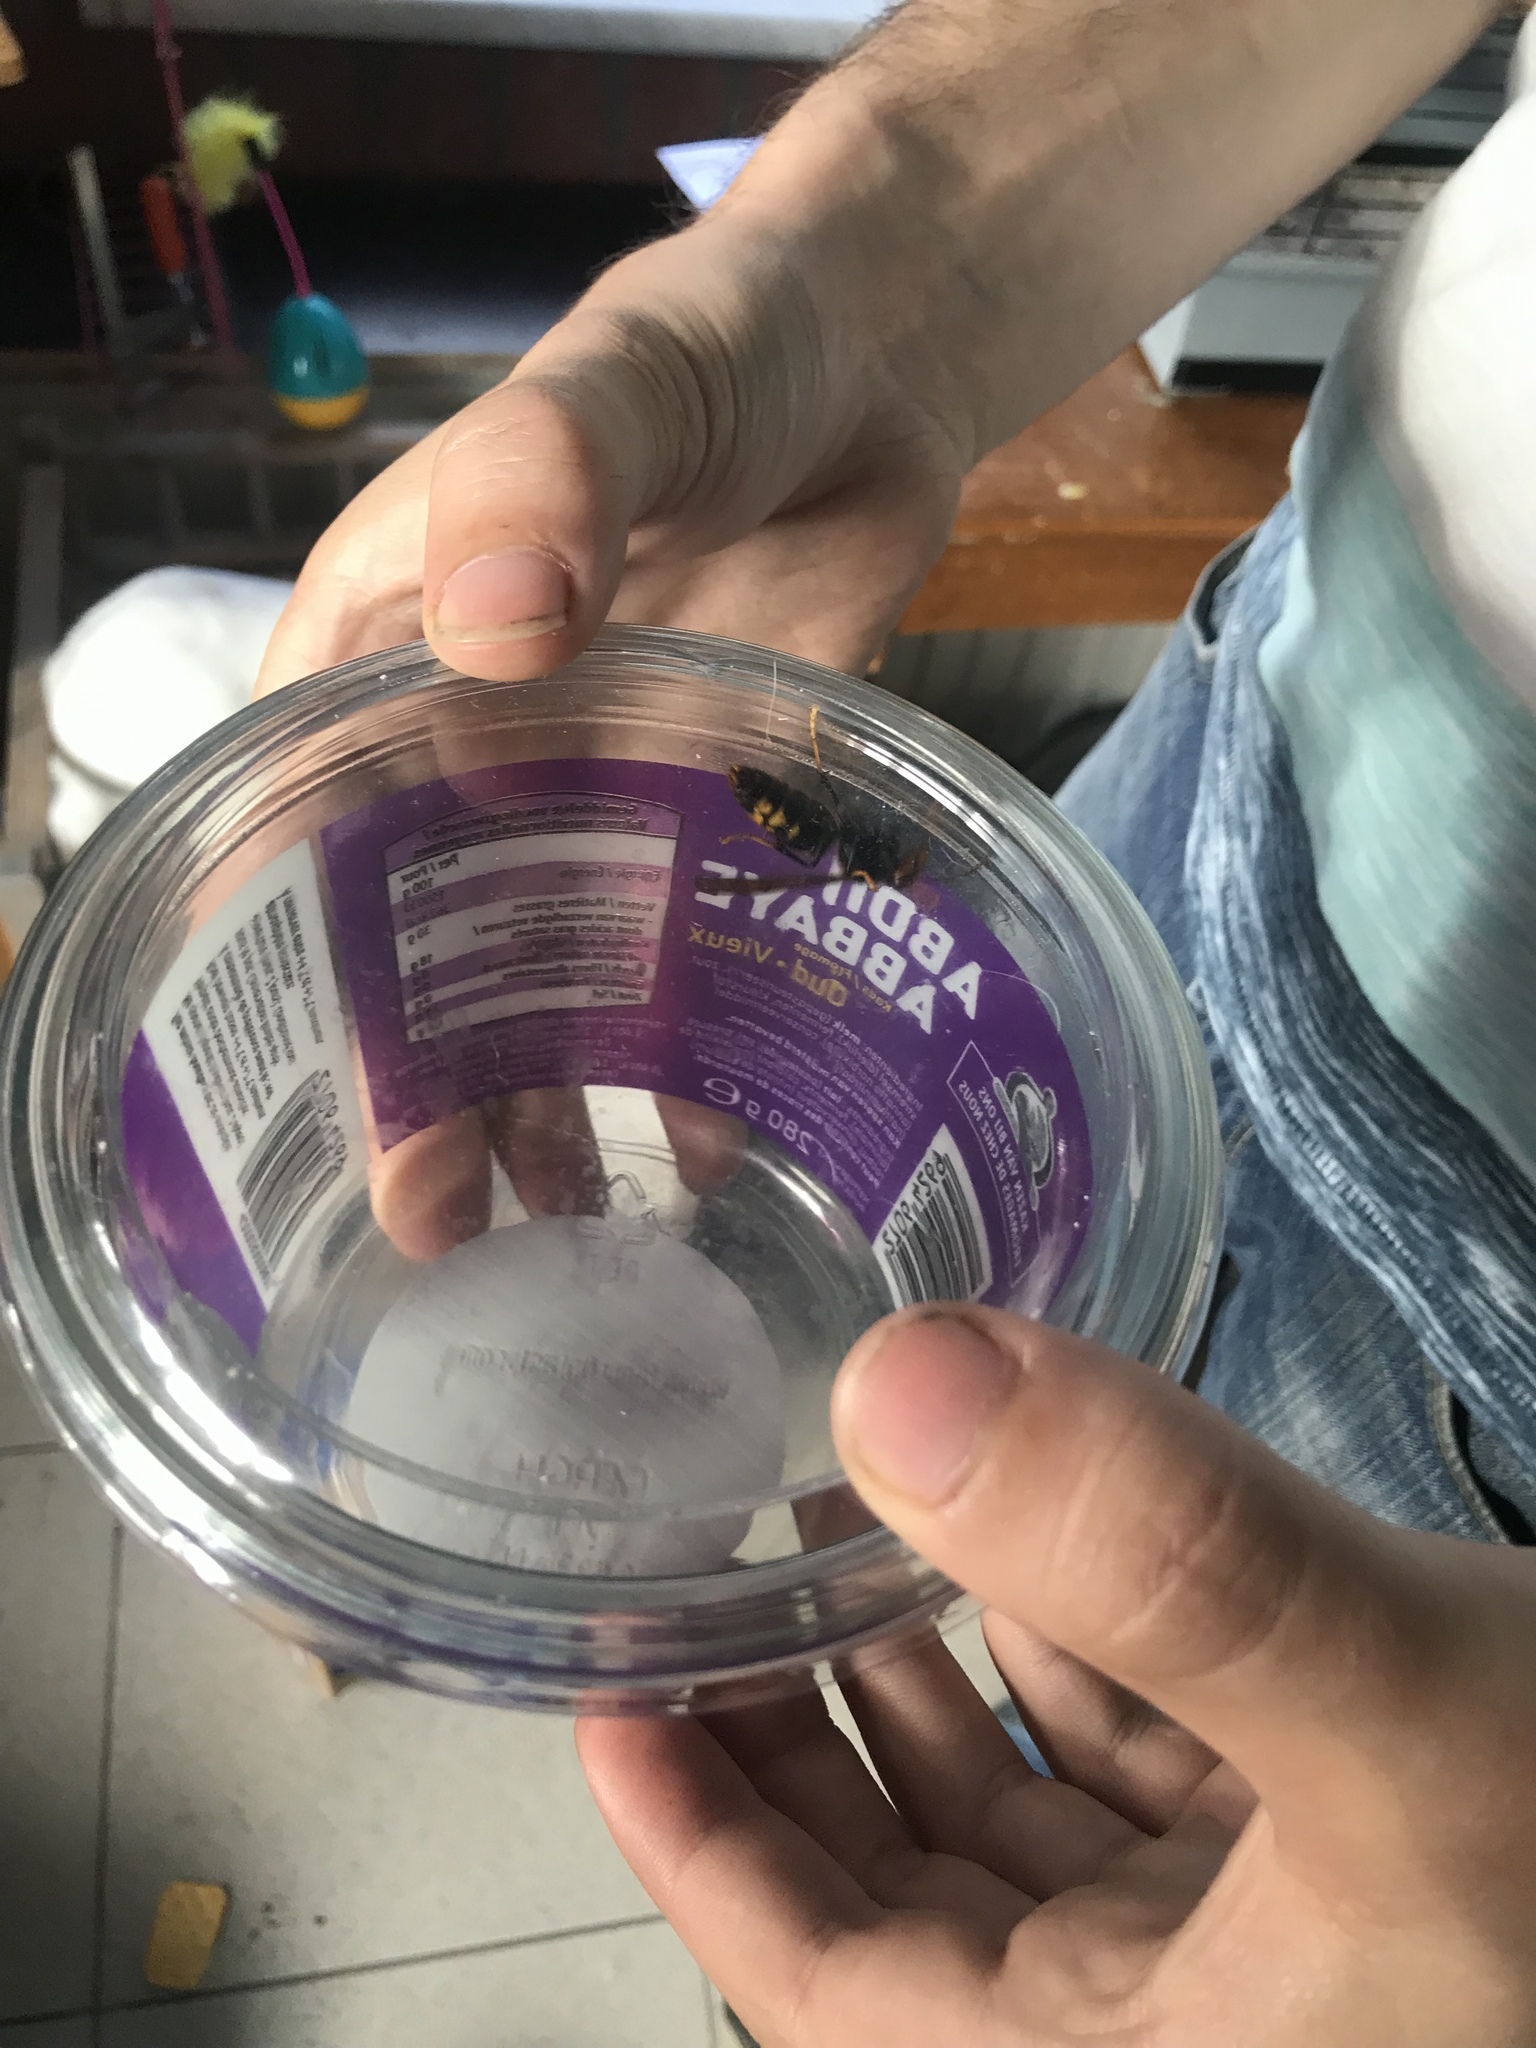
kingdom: Animalia
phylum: Arthropoda
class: Insecta
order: Hymenoptera
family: Vespidae
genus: Vespa
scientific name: Vespa velutina
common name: Asian hornet
